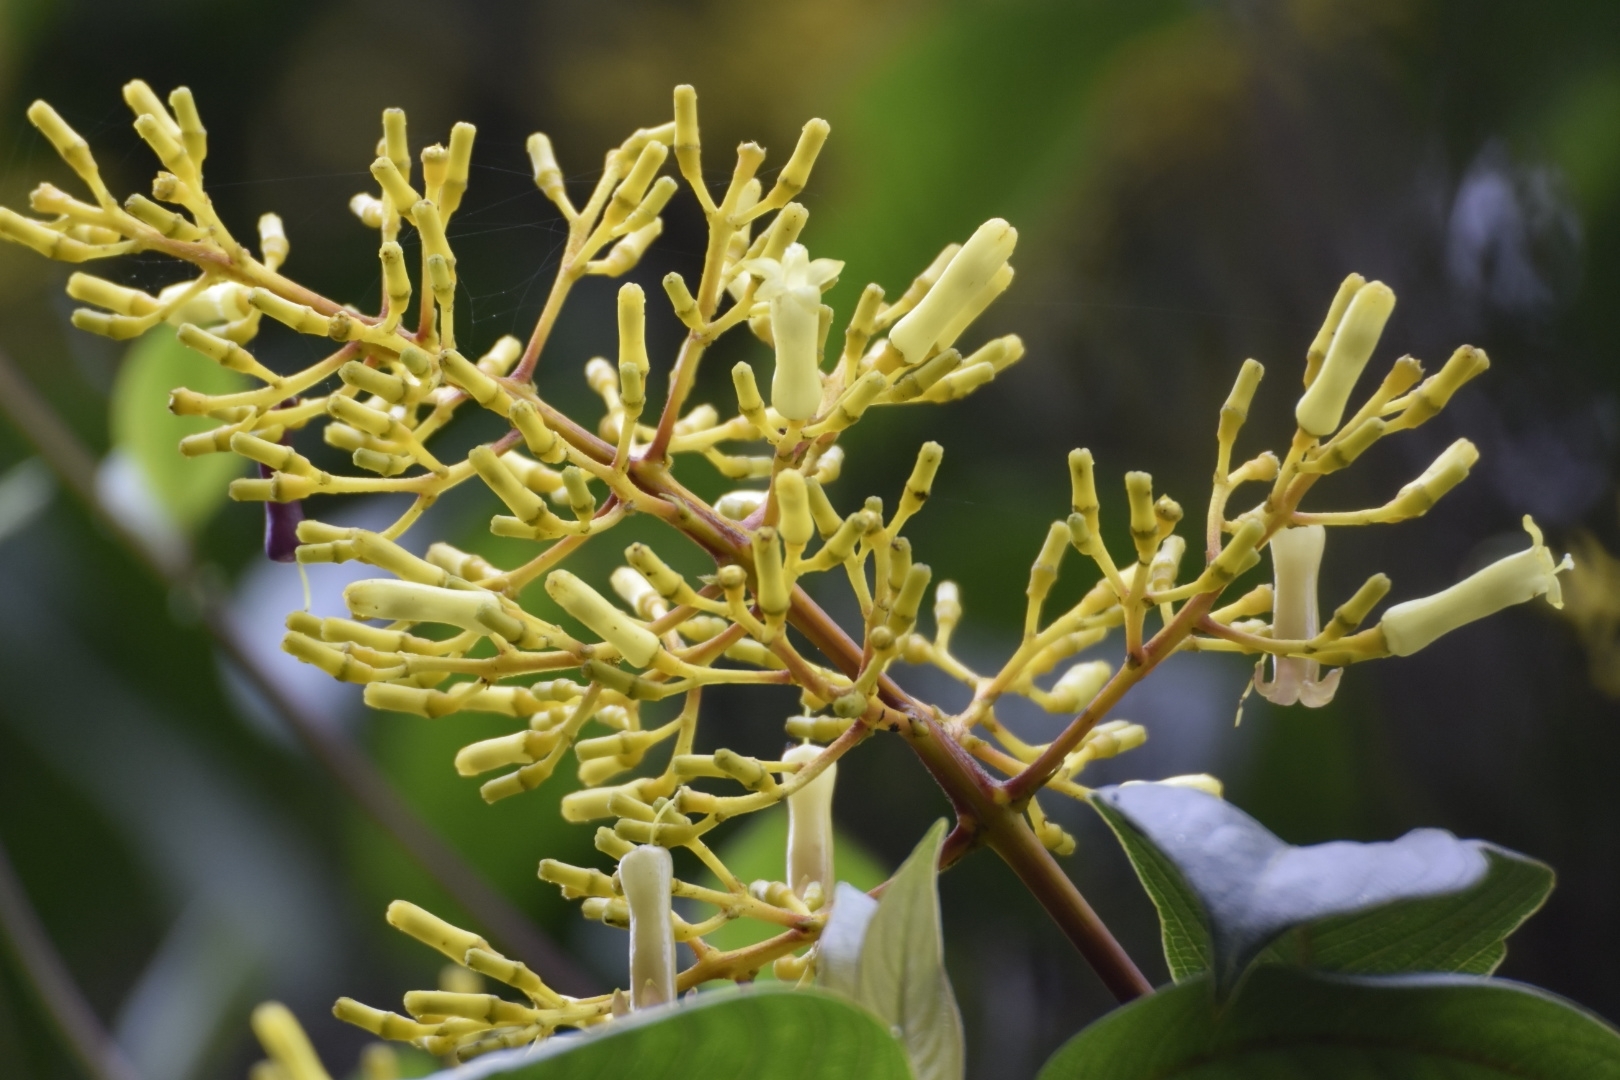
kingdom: Plantae
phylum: Tracheophyta
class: Magnoliopsida
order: Gentianales
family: Rubiaceae
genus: Palicourea
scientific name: Palicourea lineariflora
